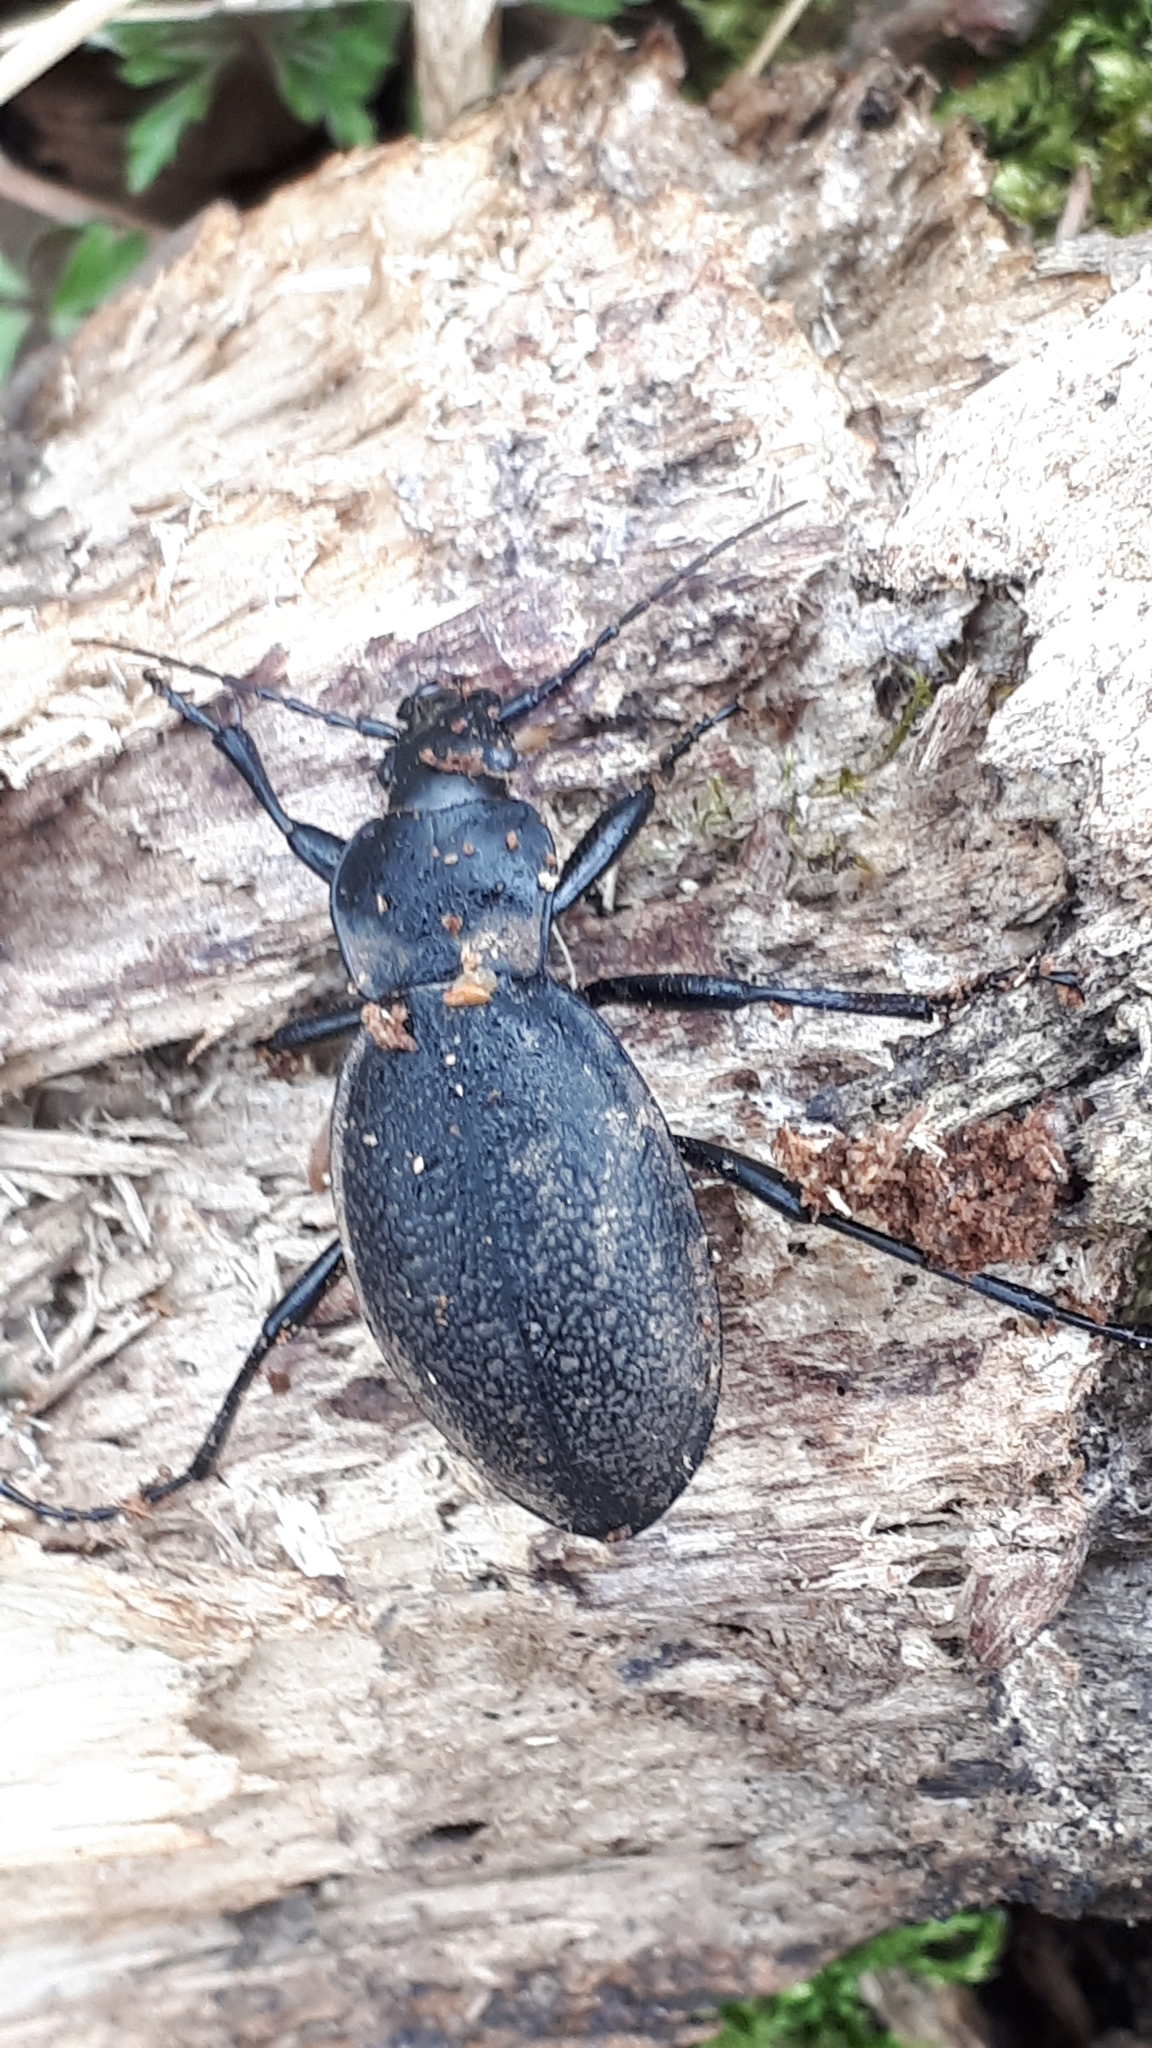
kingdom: Animalia
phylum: Arthropoda
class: Insecta
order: Coleoptera
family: Carabidae
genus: Carabus
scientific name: Carabus coriaceus
